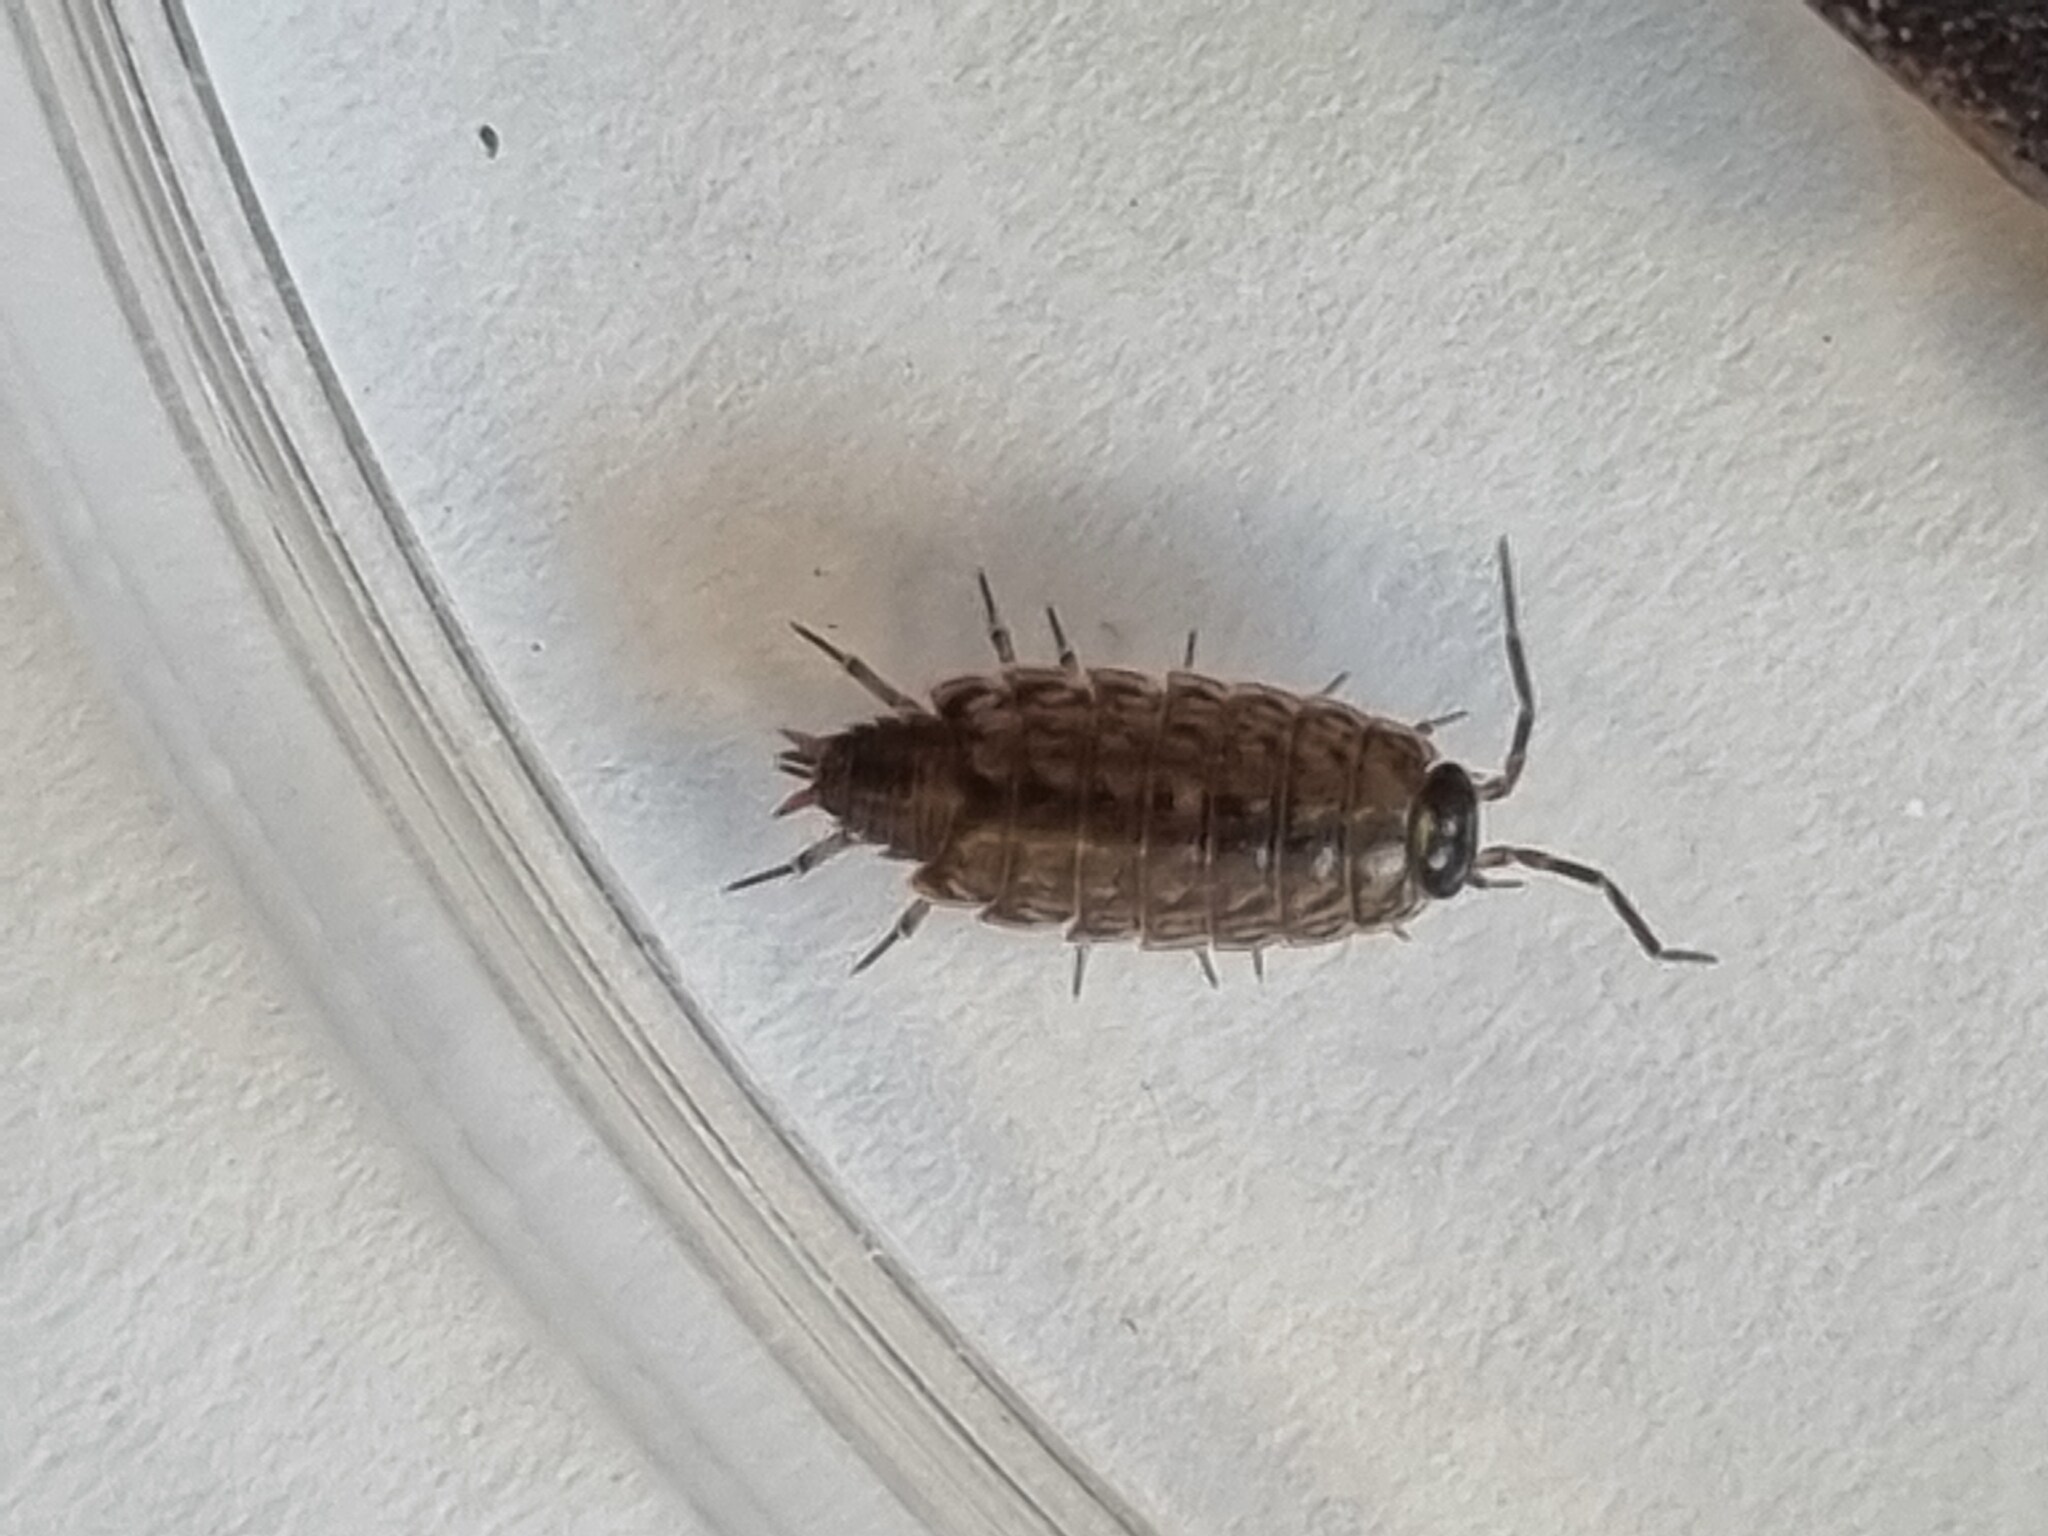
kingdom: Animalia
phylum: Arthropoda
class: Malacostraca
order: Isopoda
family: Philosciidae
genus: Philoscia
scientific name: Philoscia muscorum
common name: Common striped woodlouse
